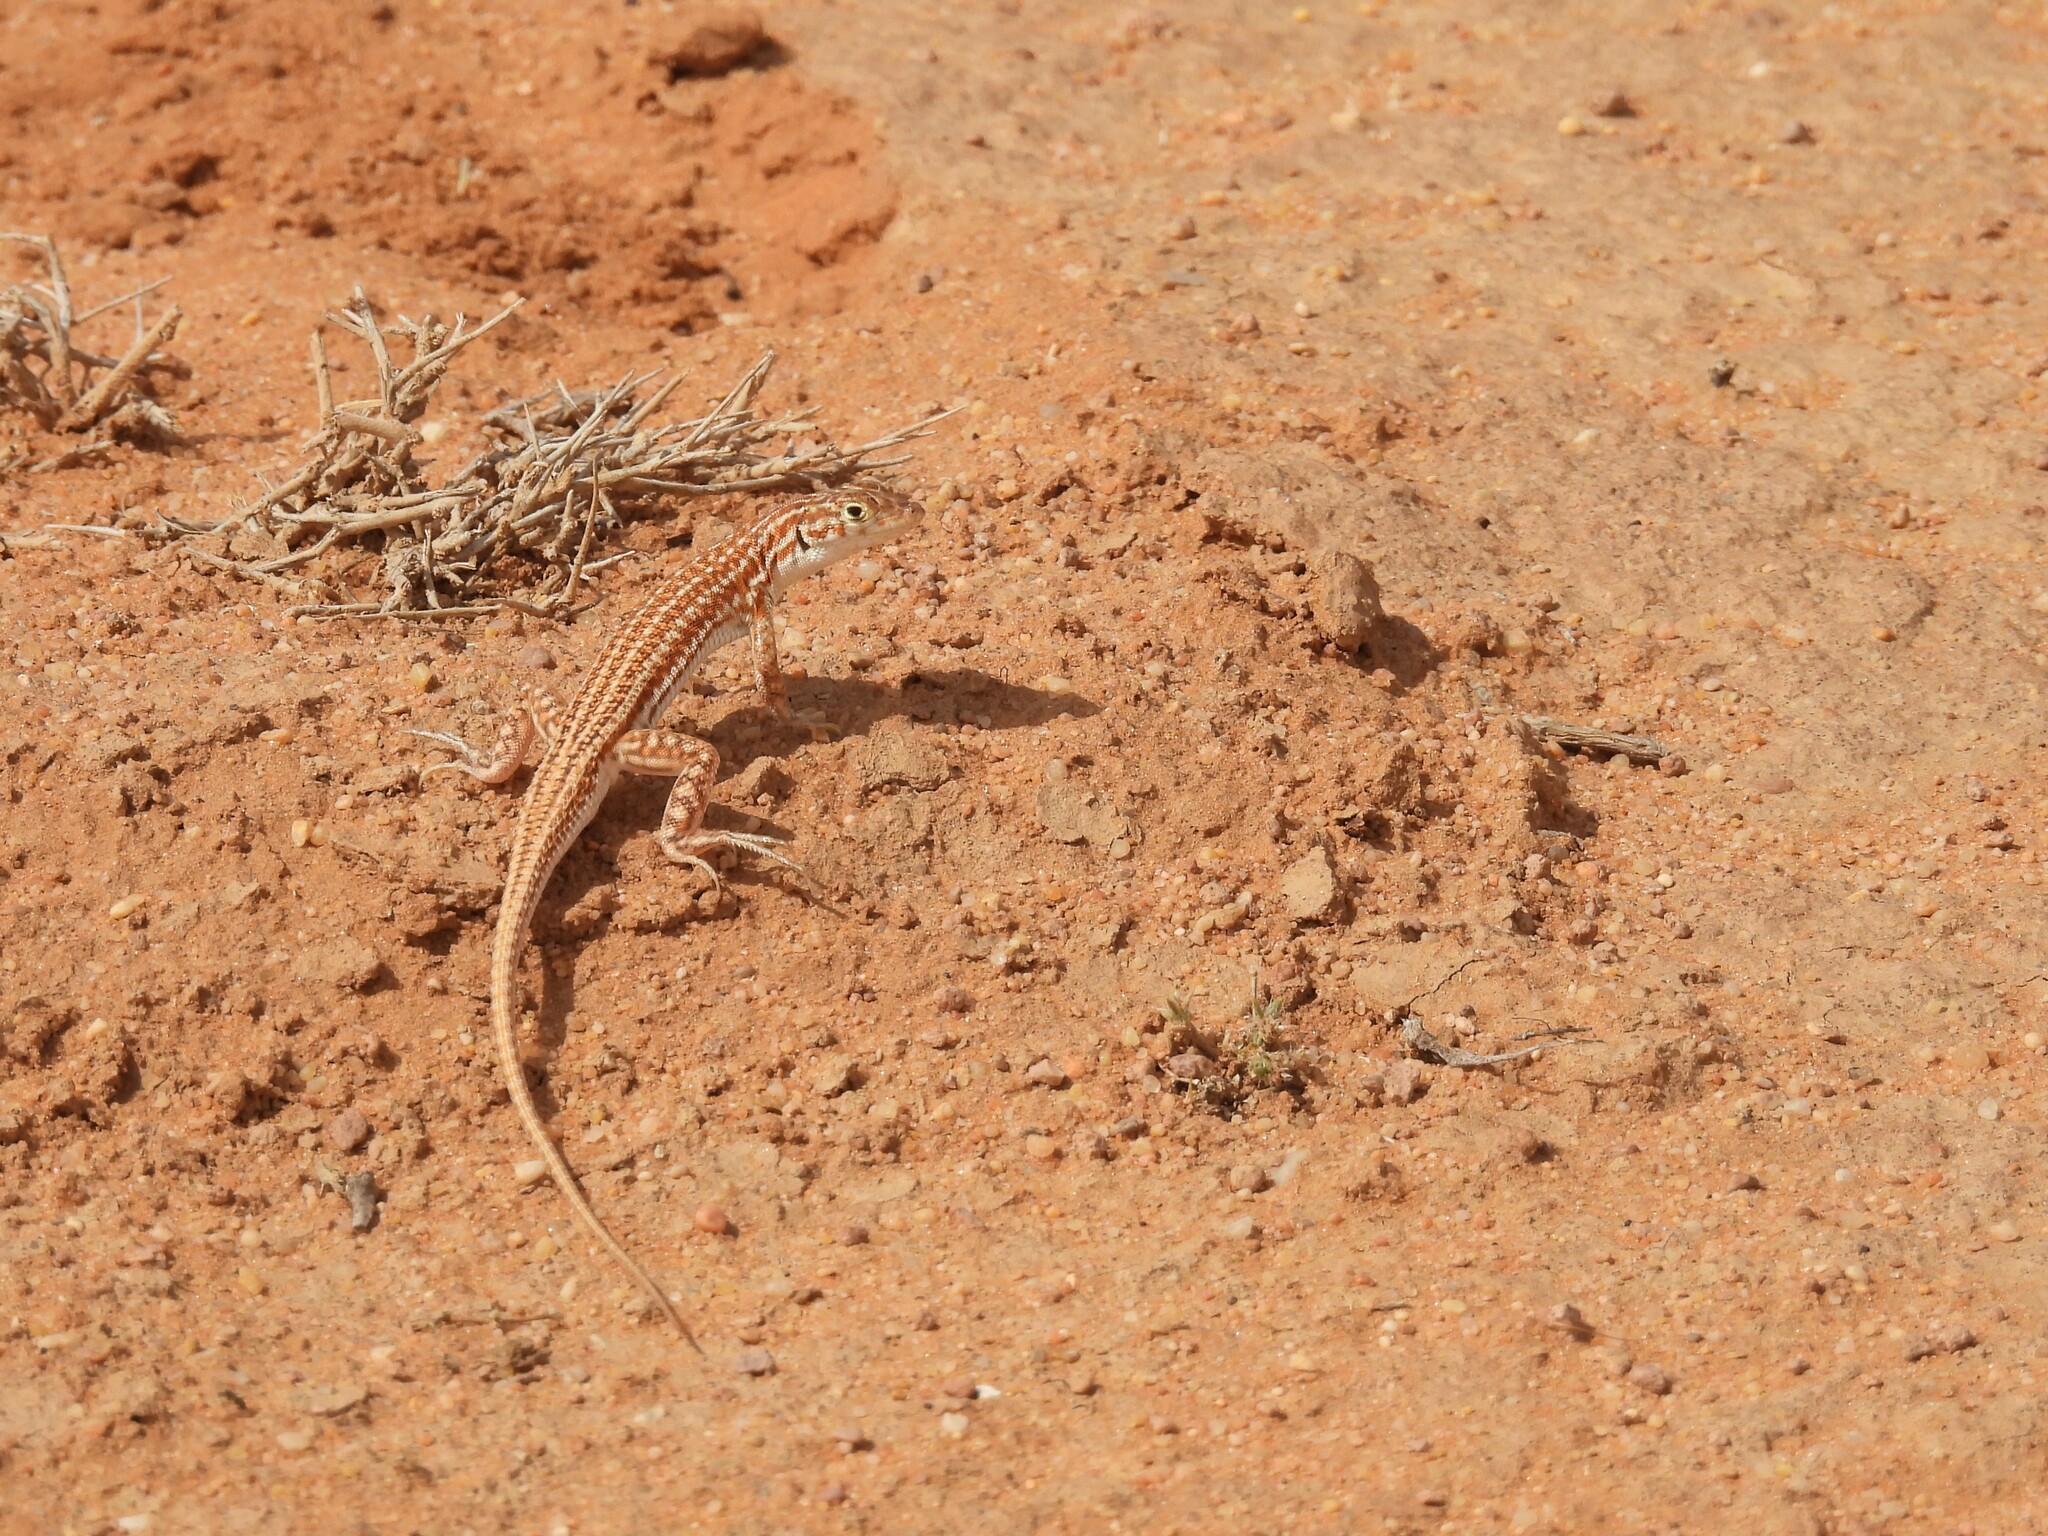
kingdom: Animalia
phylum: Chordata
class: Squamata
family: Lacertidae
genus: Acanthodactylus
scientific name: Acanthodactylus opheodurus
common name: Arnold's fringe-fingered lizard
